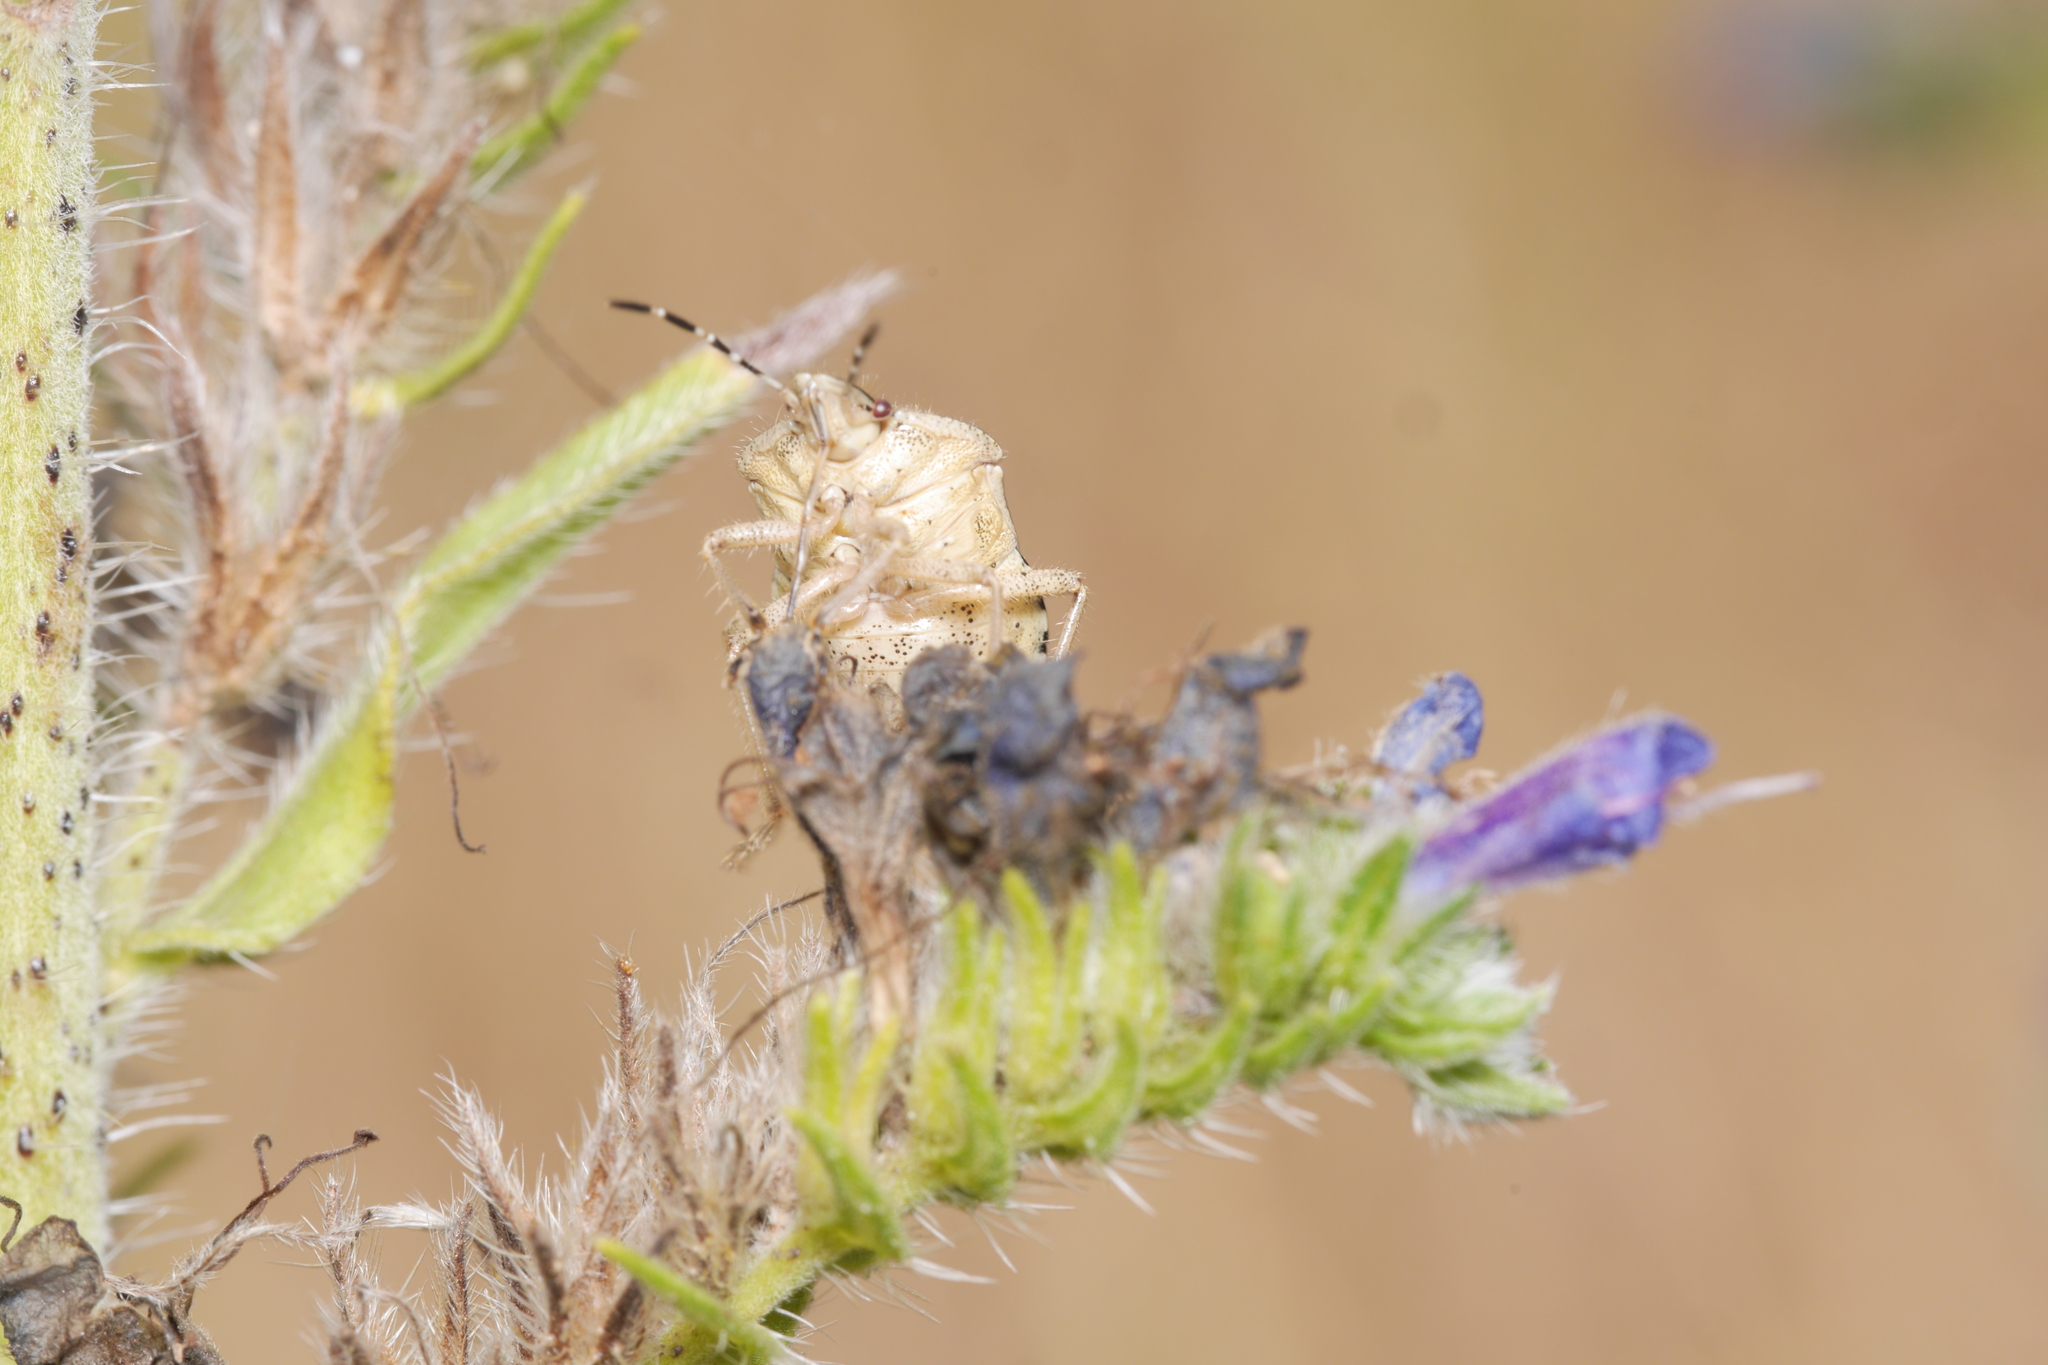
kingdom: Animalia
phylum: Arthropoda
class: Insecta
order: Hemiptera
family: Pentatomidae
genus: Dolycoris
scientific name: Dolycoris baccarum
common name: Sloe bug
